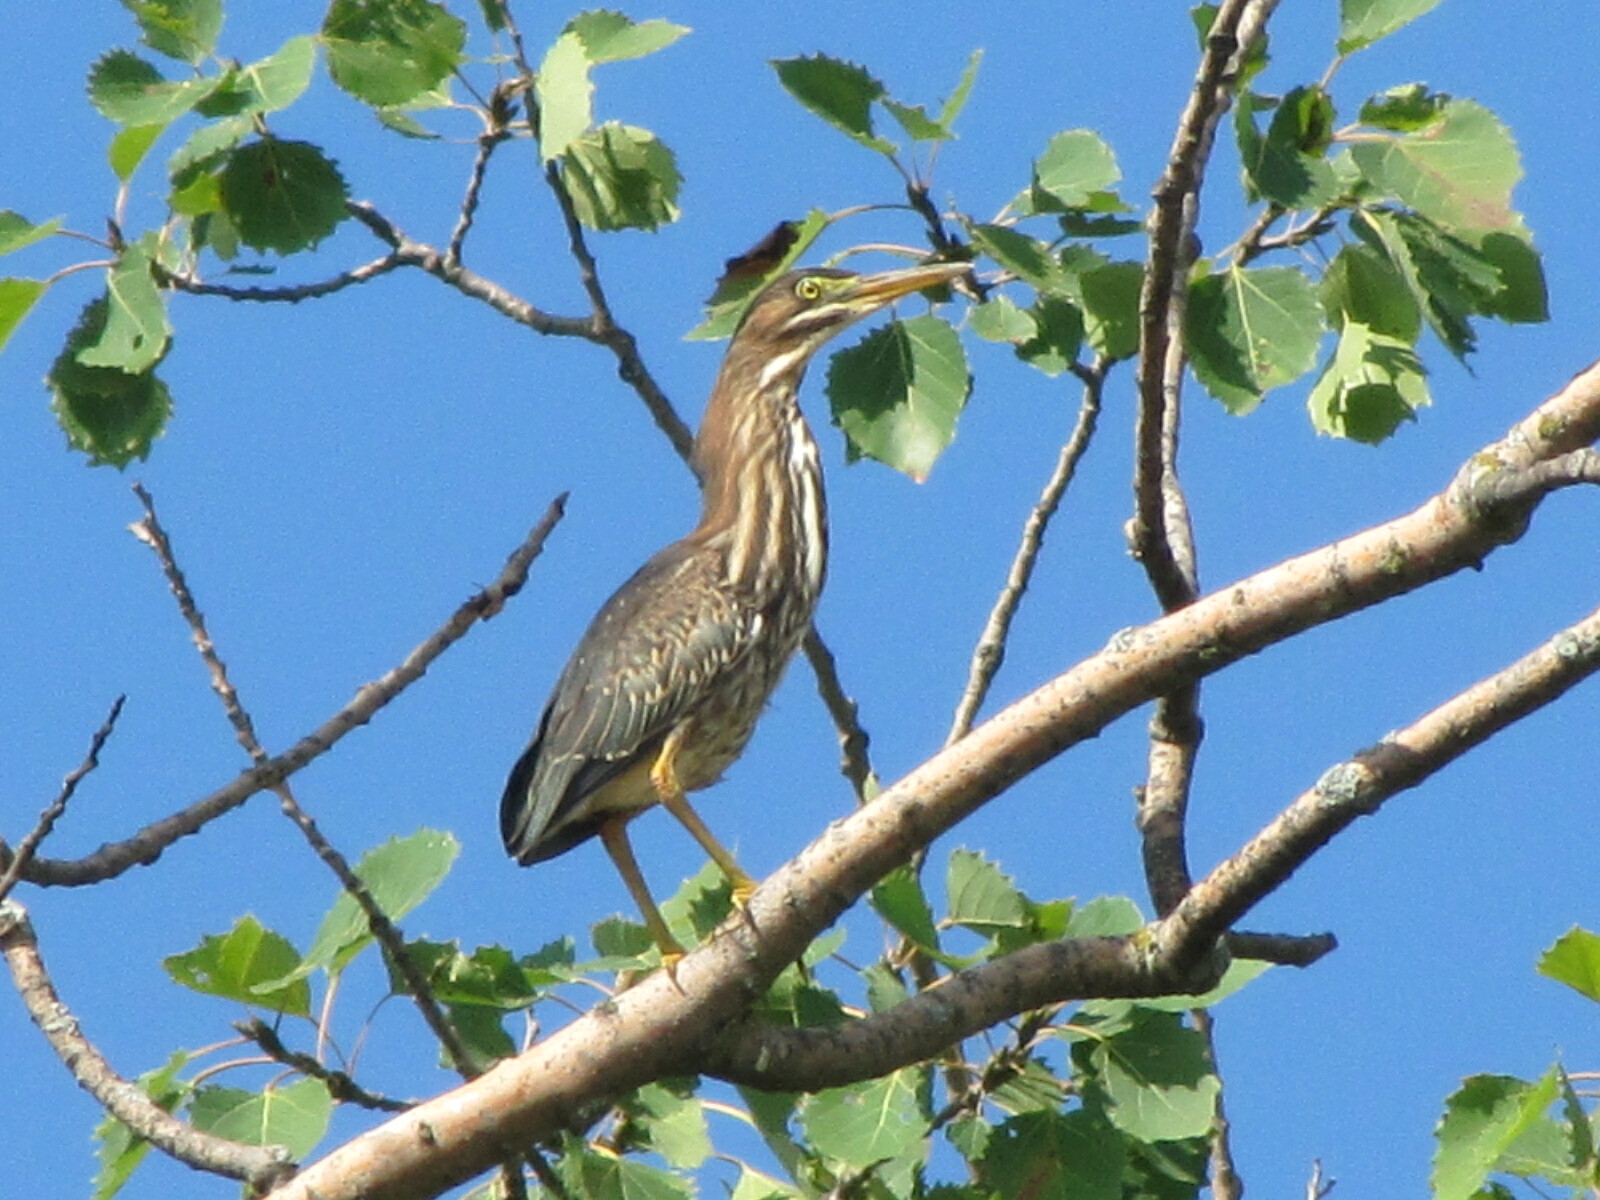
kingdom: Animalia
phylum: Chordata
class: Aves
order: Pelecaniformes
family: Ardeidae
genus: Butorides
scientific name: Butorides virescens
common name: Green heron
